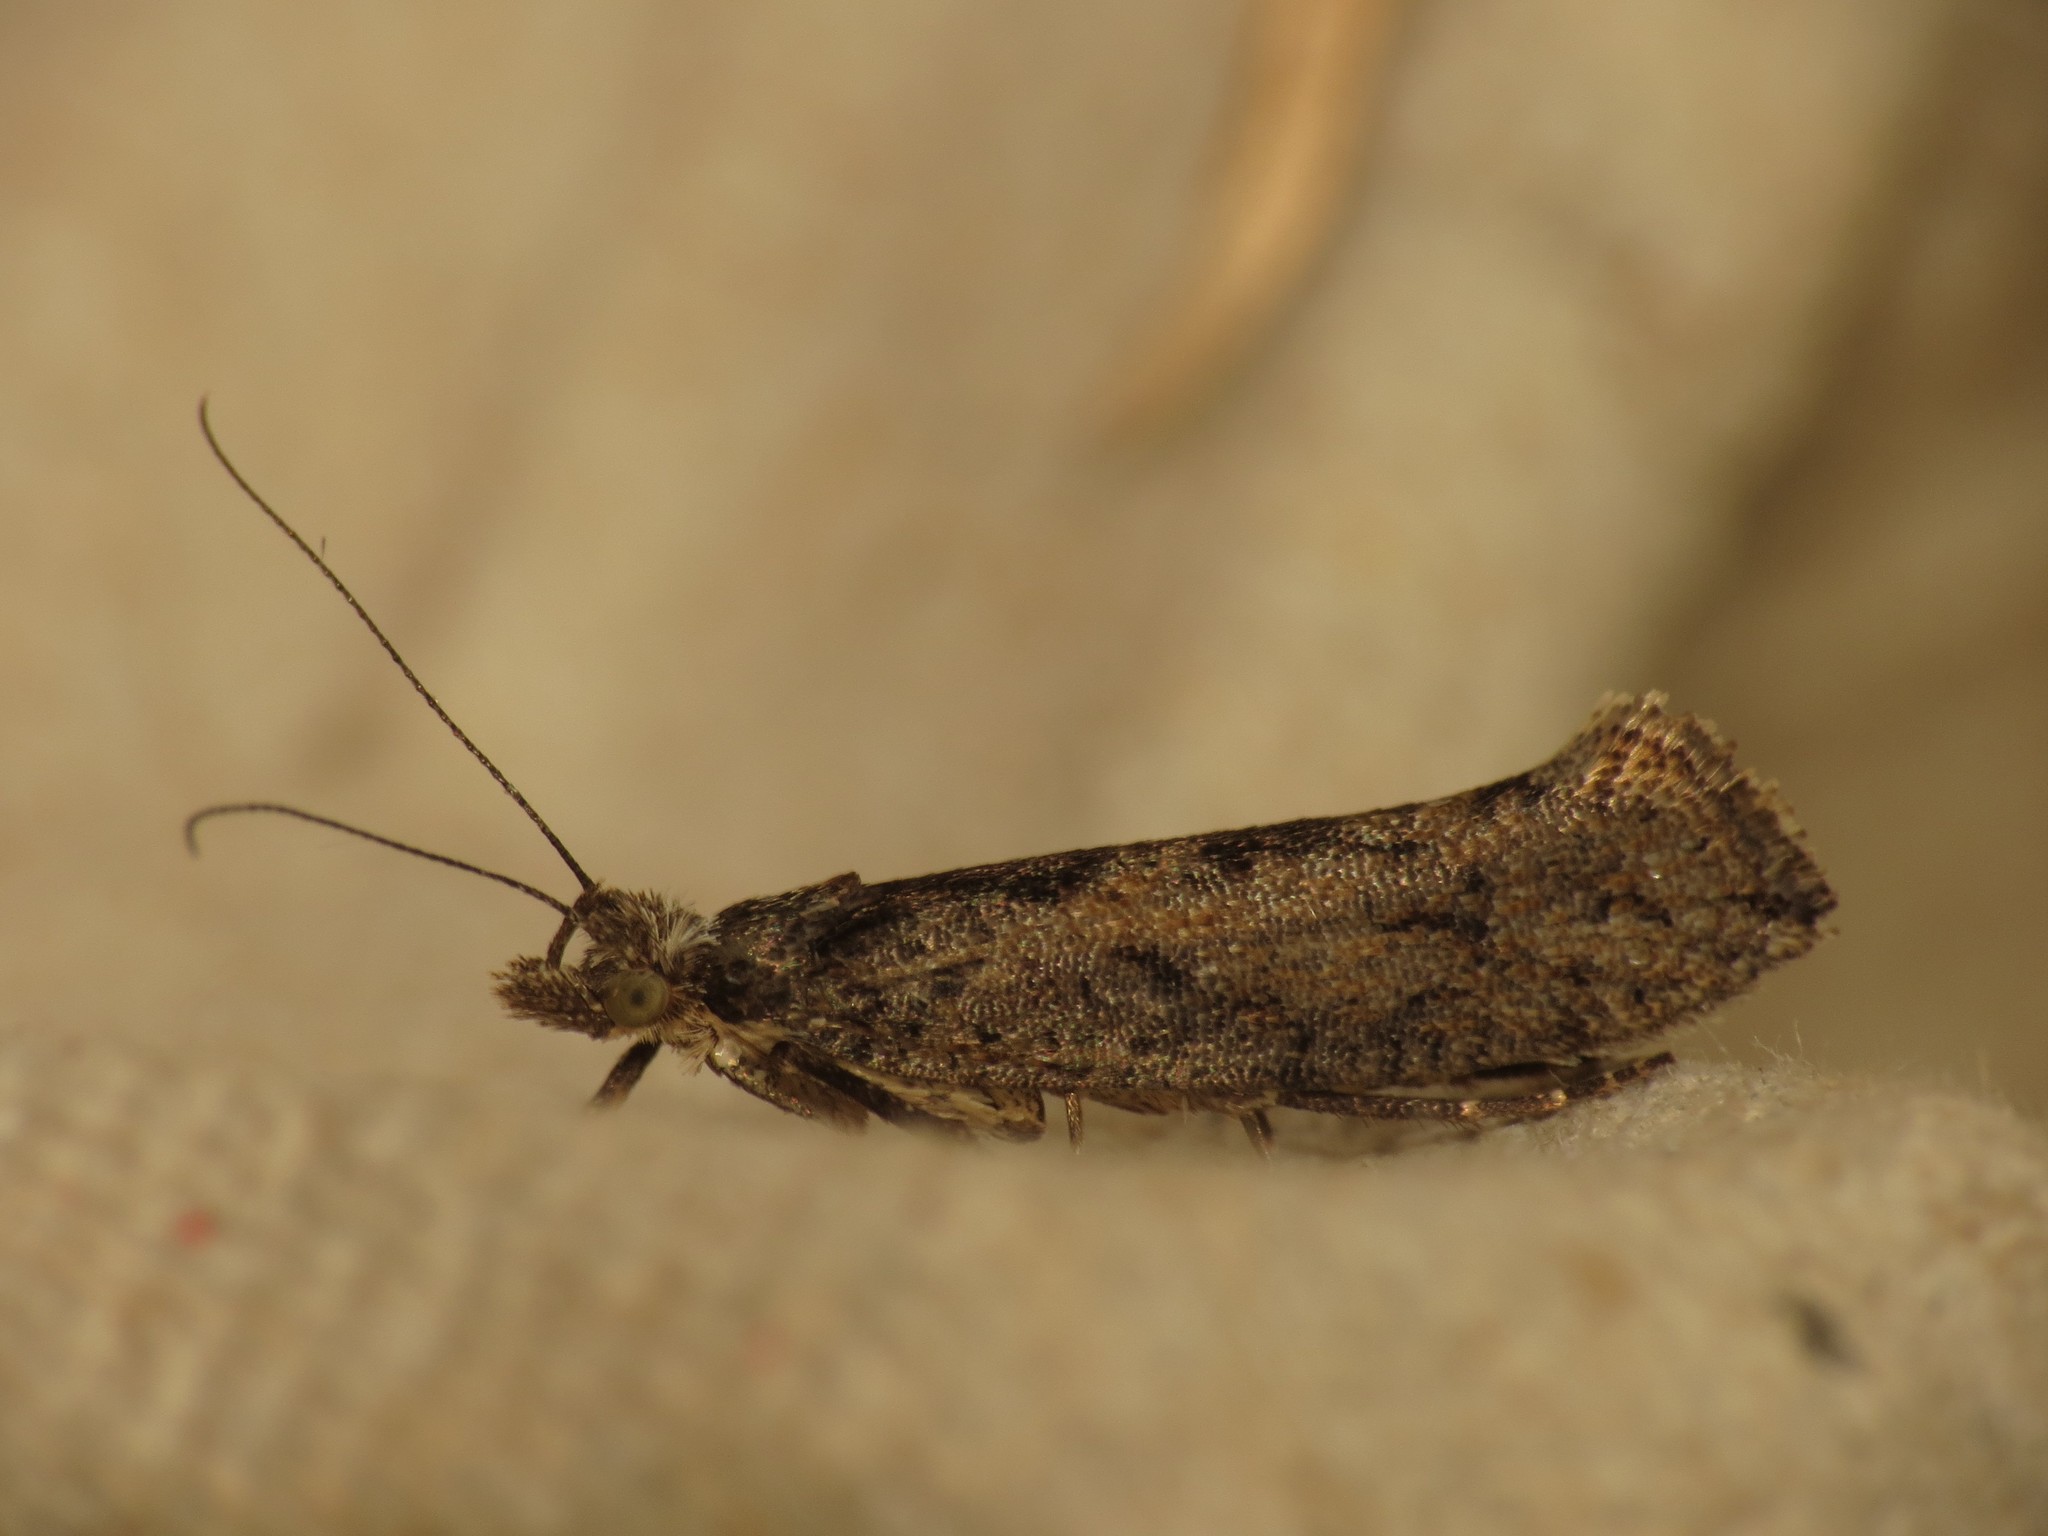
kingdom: Animalia
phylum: Arthropoda
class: Insecta
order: Lepidoptera
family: Ypsolophidae
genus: Ypsolopha
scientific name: Ypsolopha vittella
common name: Elm smudge
